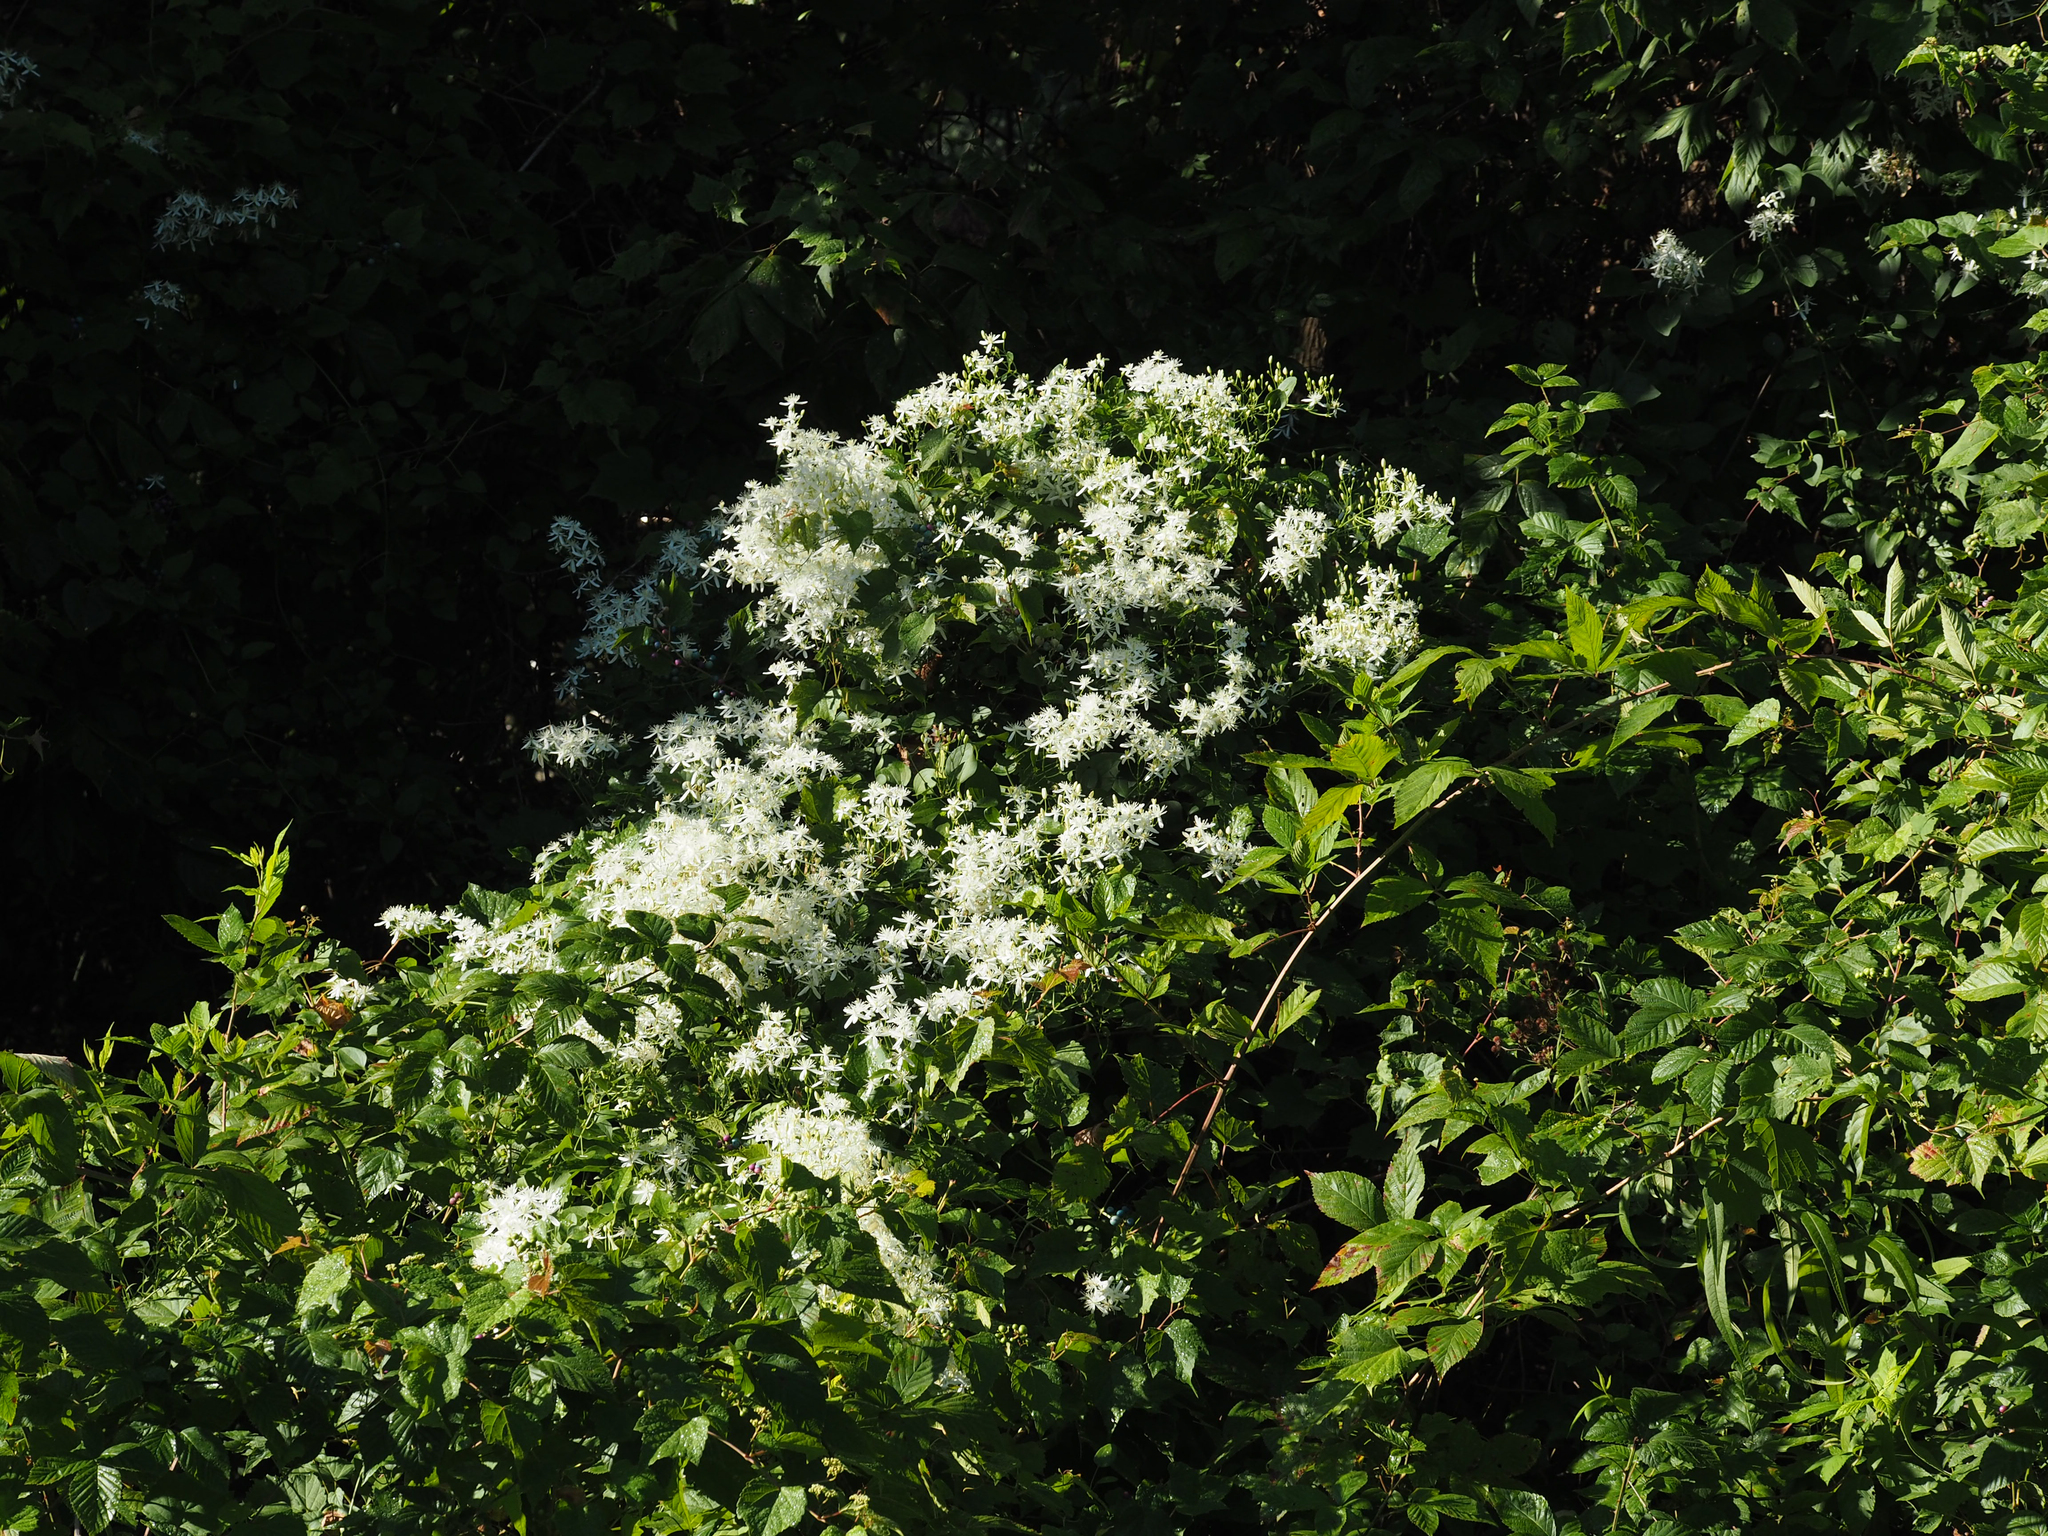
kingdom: Plantae
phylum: Tracheophyta
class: Magnoliopsida
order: Ranunculales
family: Ranunculaceae
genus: Clematis
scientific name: Clematis terniflora
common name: Sweet autumn clematis
